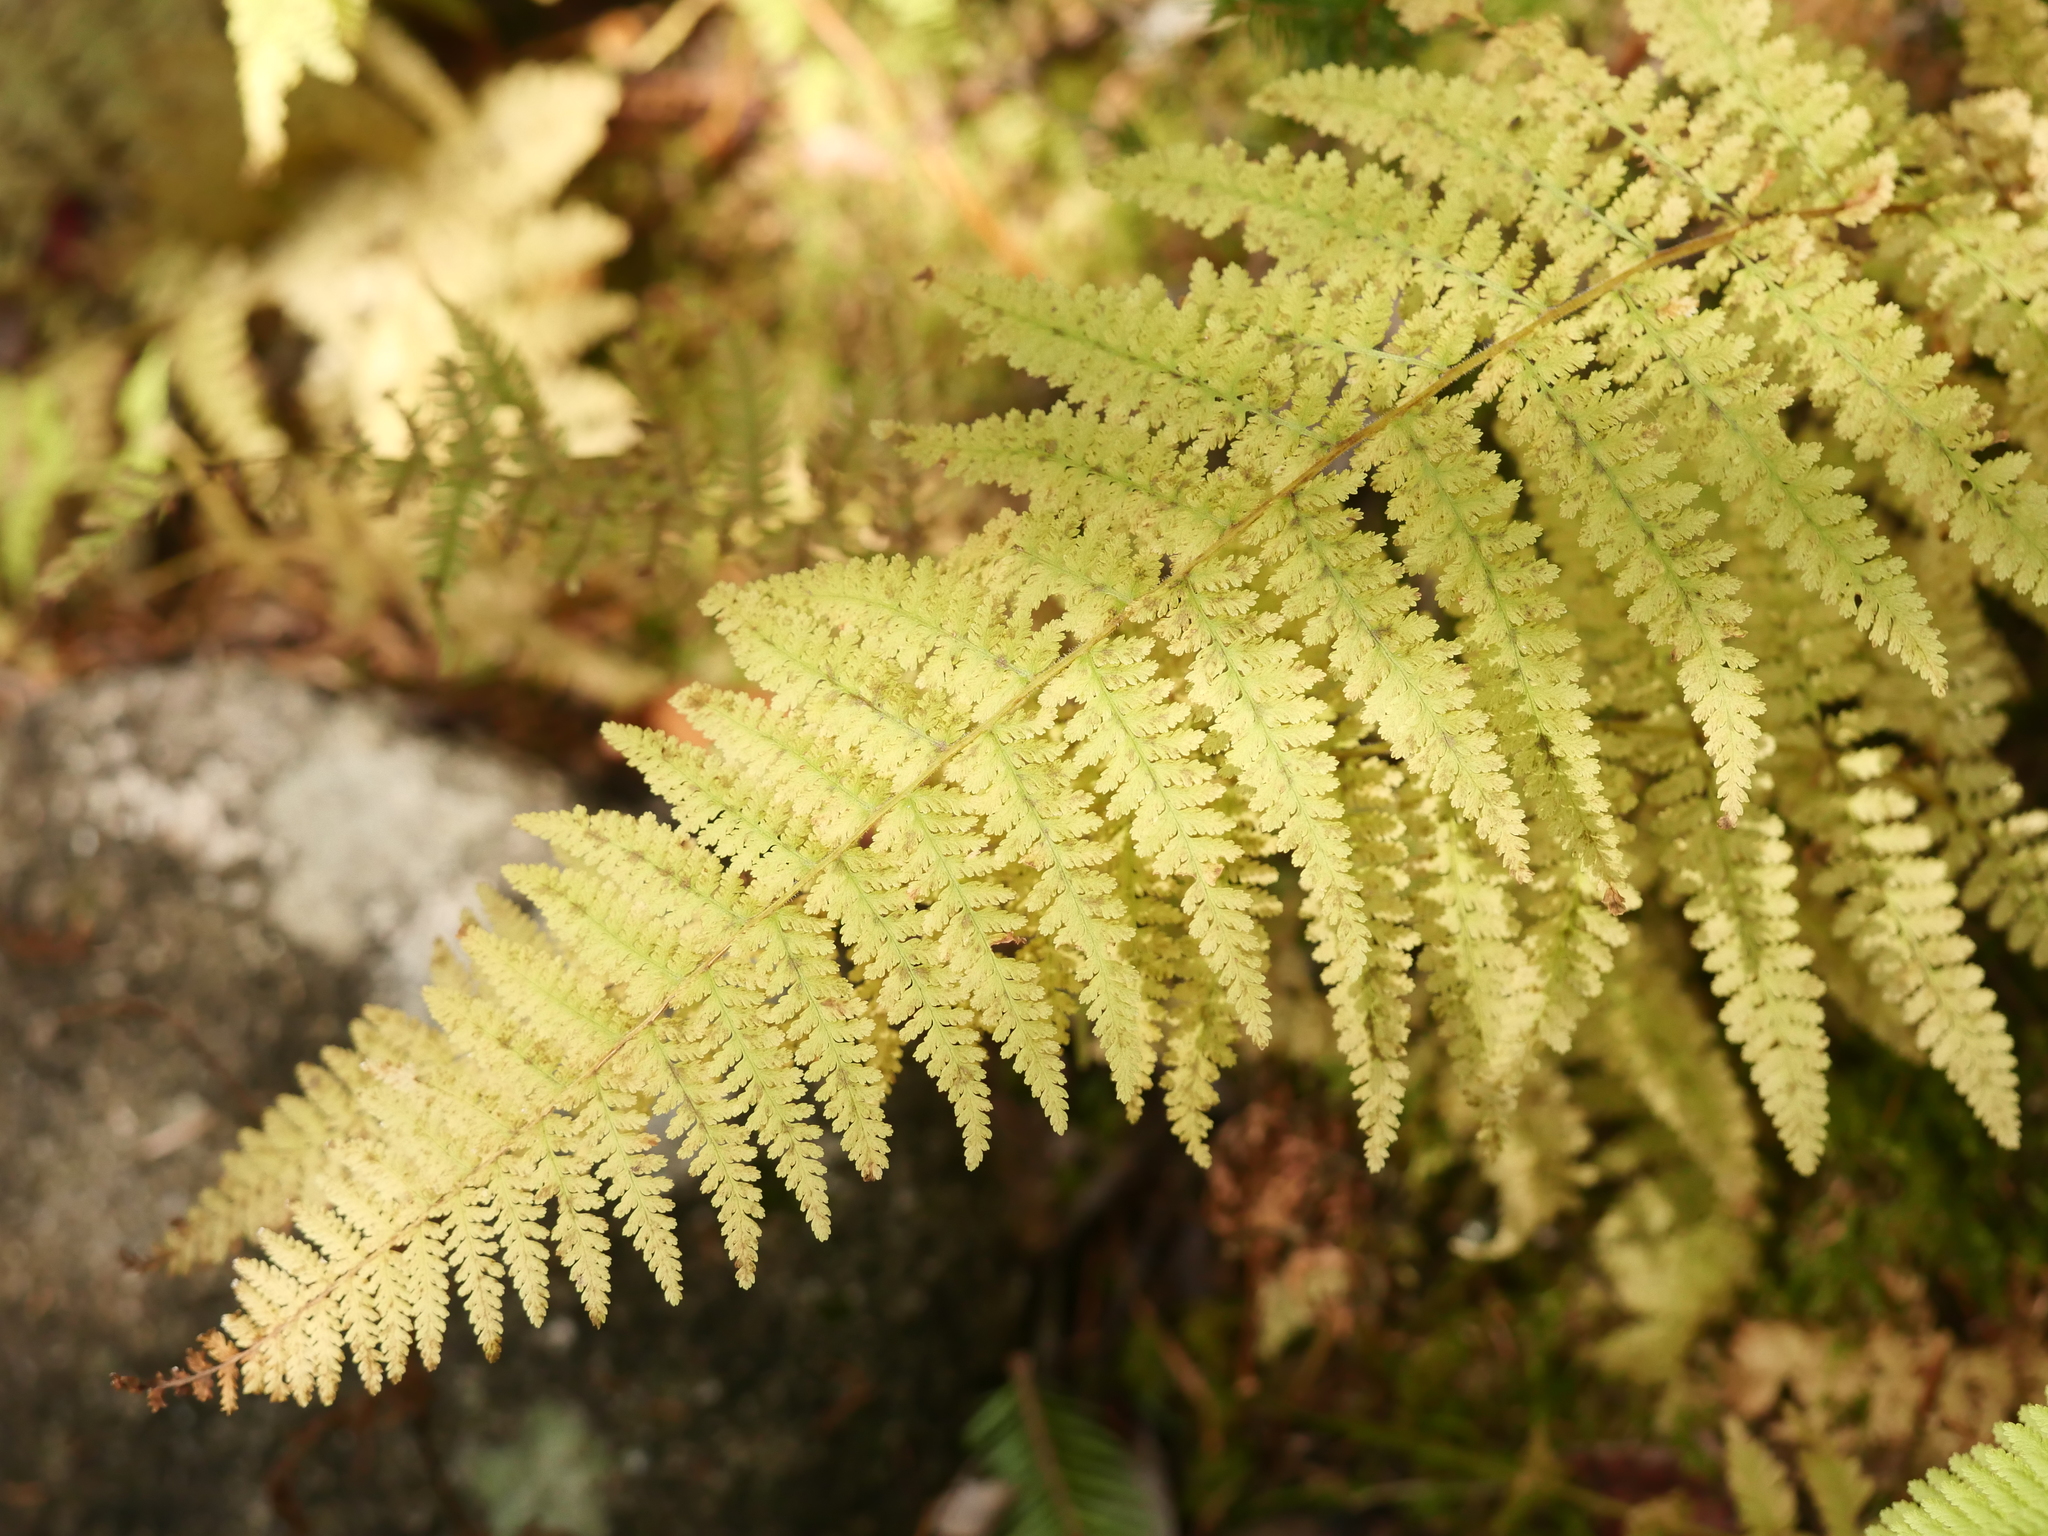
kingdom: Plantae
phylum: Tracheophyta
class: Polypodiopsida
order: Polypodiales
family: Dennstaedtiaceae
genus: Sitobolium
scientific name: Sitobolium punctilobum
